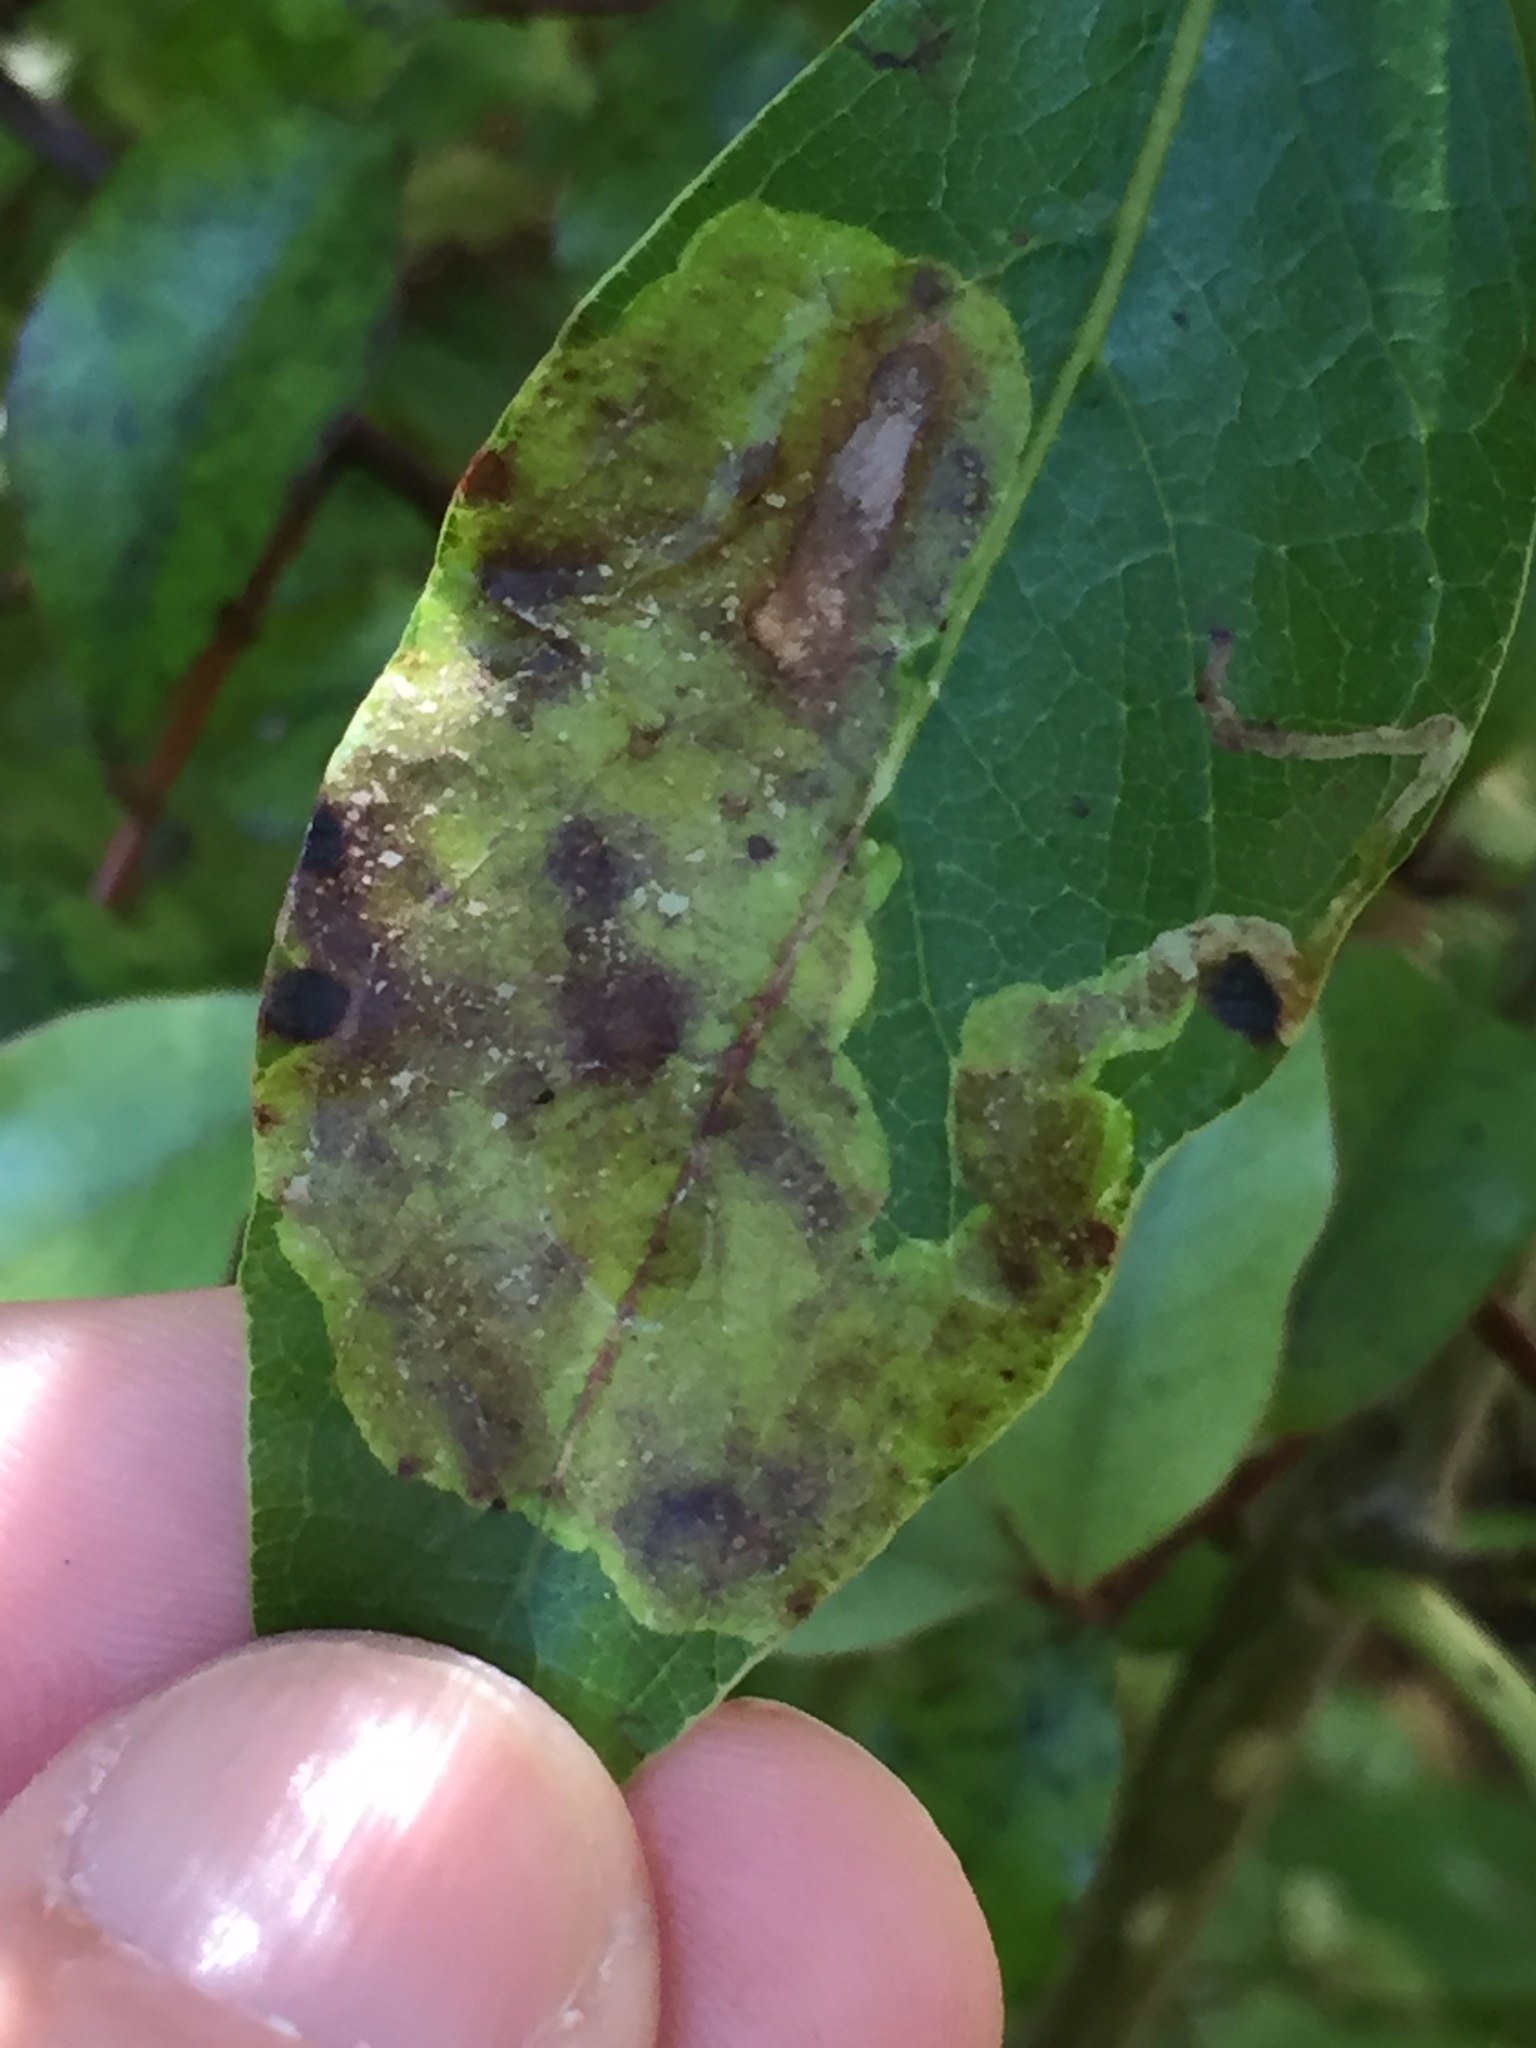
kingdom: Animalia
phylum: Arthropoda
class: Insecta
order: Lepidoptera
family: Gracillariidae
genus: Corythoxestis
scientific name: Corythoxestis zorionella
